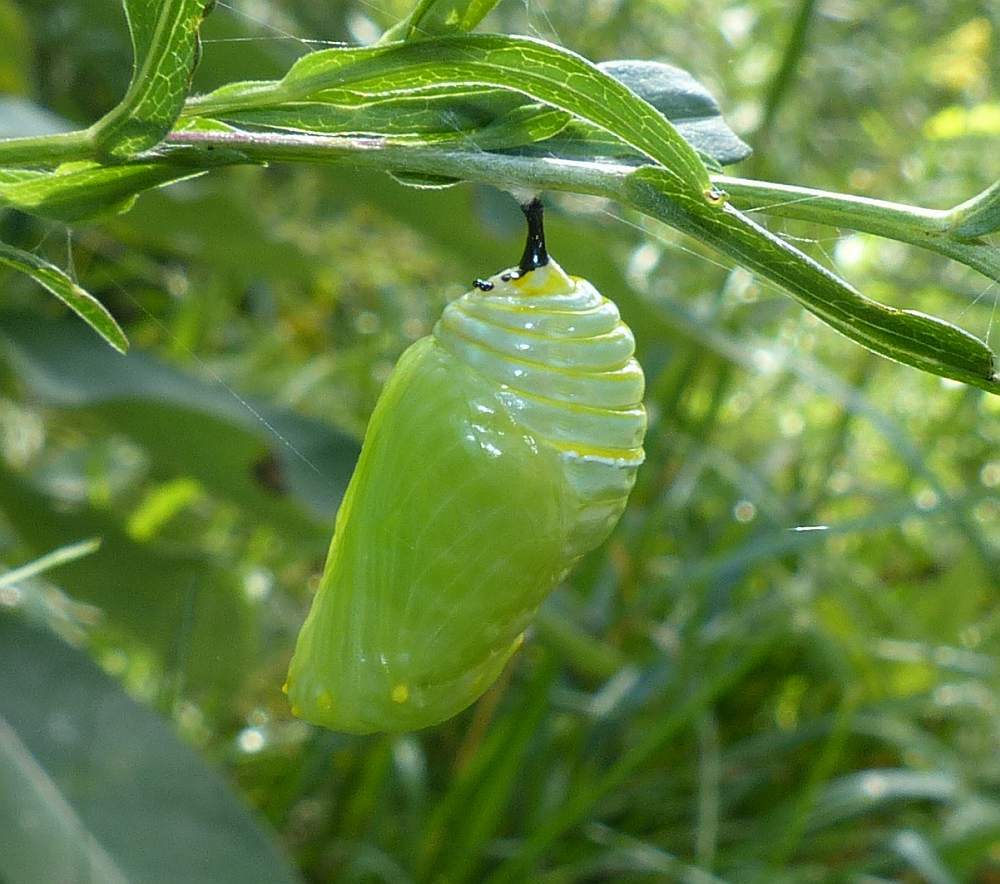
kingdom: Animalia
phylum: Arthropoda
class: Insecta
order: Lepidoptera
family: Nymphalidae
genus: Danaus
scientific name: Danaus plexippus
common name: Monarch
